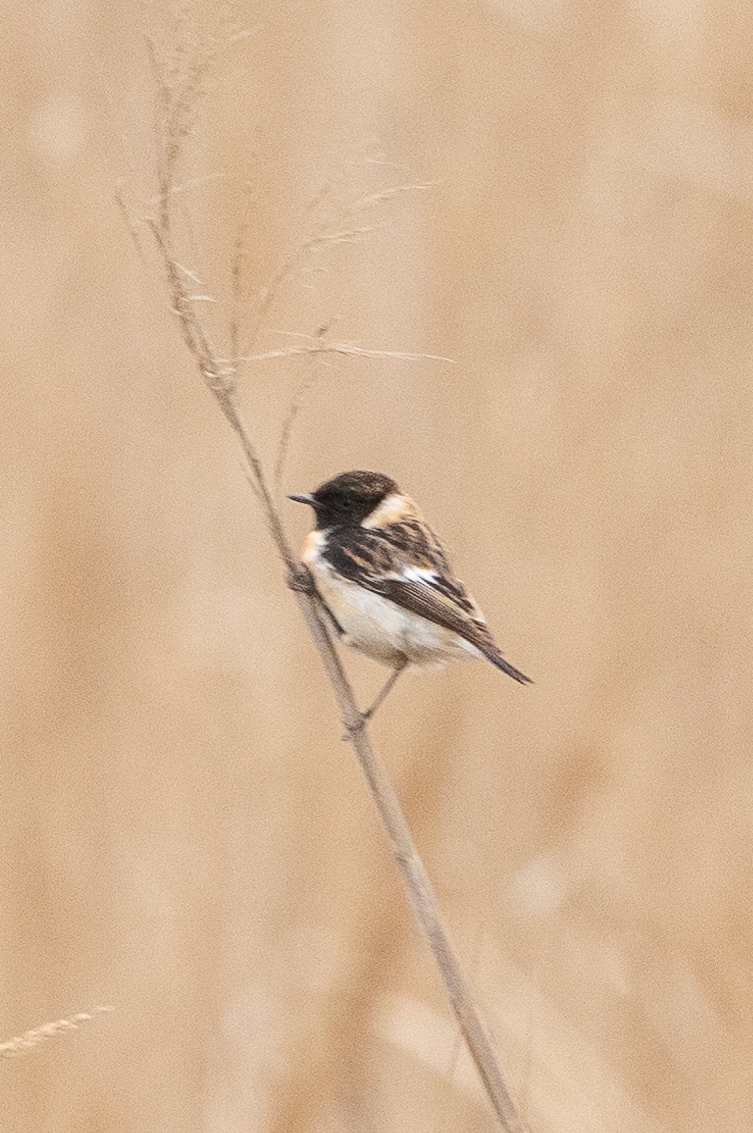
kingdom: Animalia
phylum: Chordata
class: Aves
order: Passeriformes
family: Muscicapidae
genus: Saxicola
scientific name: Saxicola maurus
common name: Siberian stonechat
